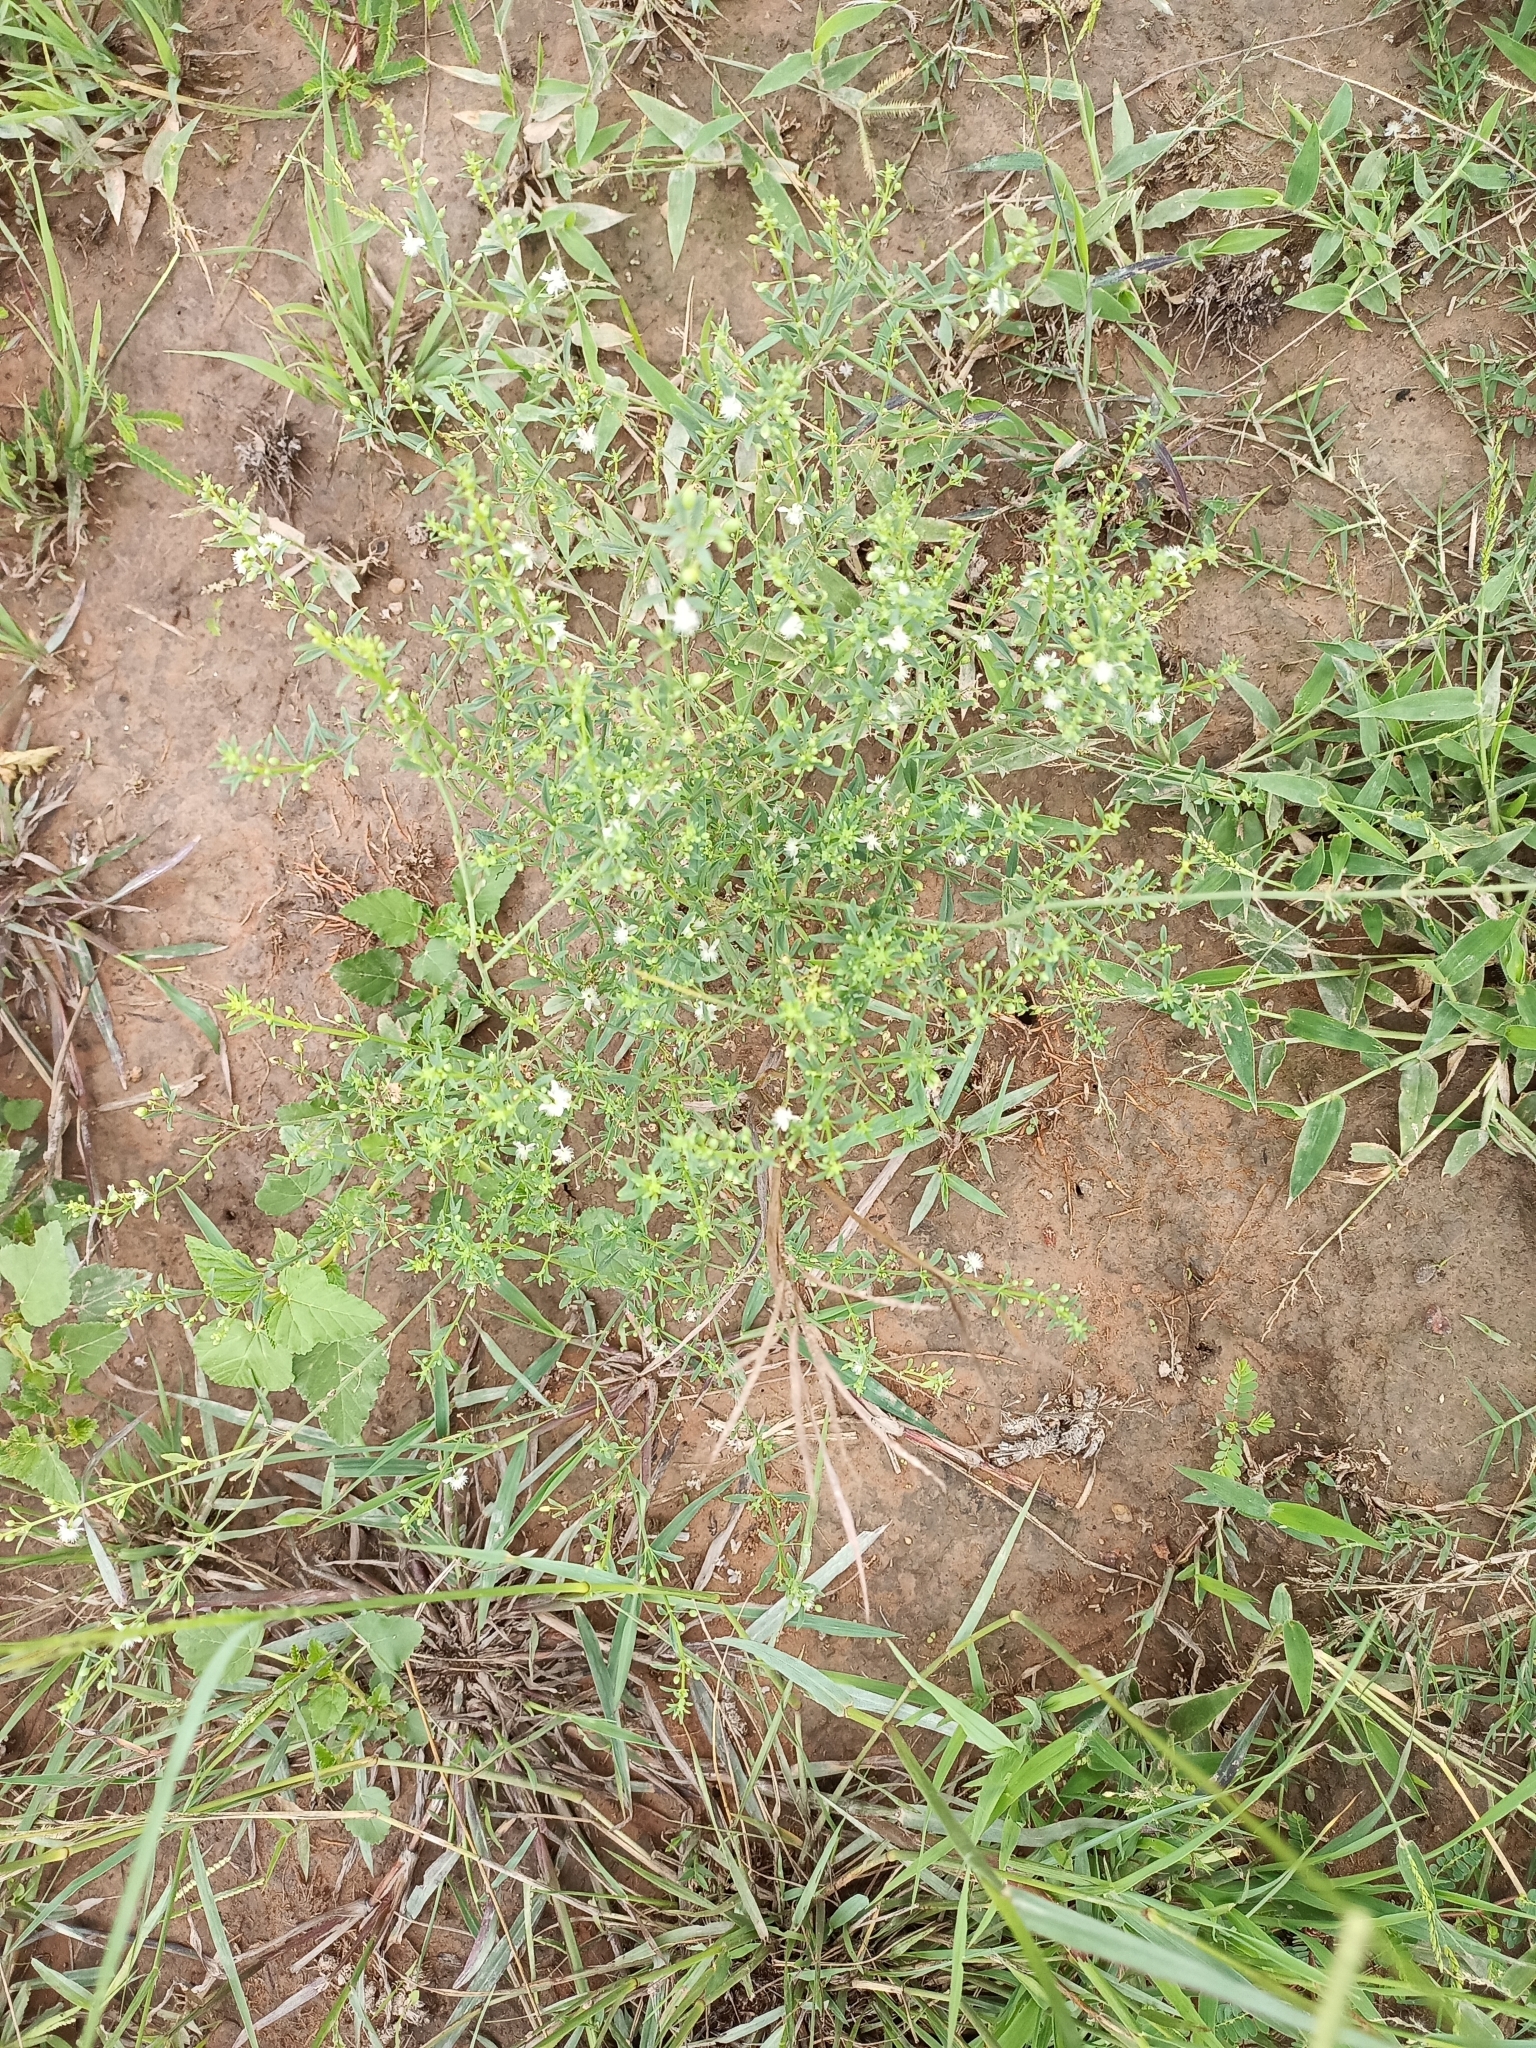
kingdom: Plantae
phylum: Tracheophyta
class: Magnoliopsida
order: Lamiales
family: Plantaginaceae
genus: Scoparia
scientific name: Scoparia dulcis
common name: Scoparia-weed
